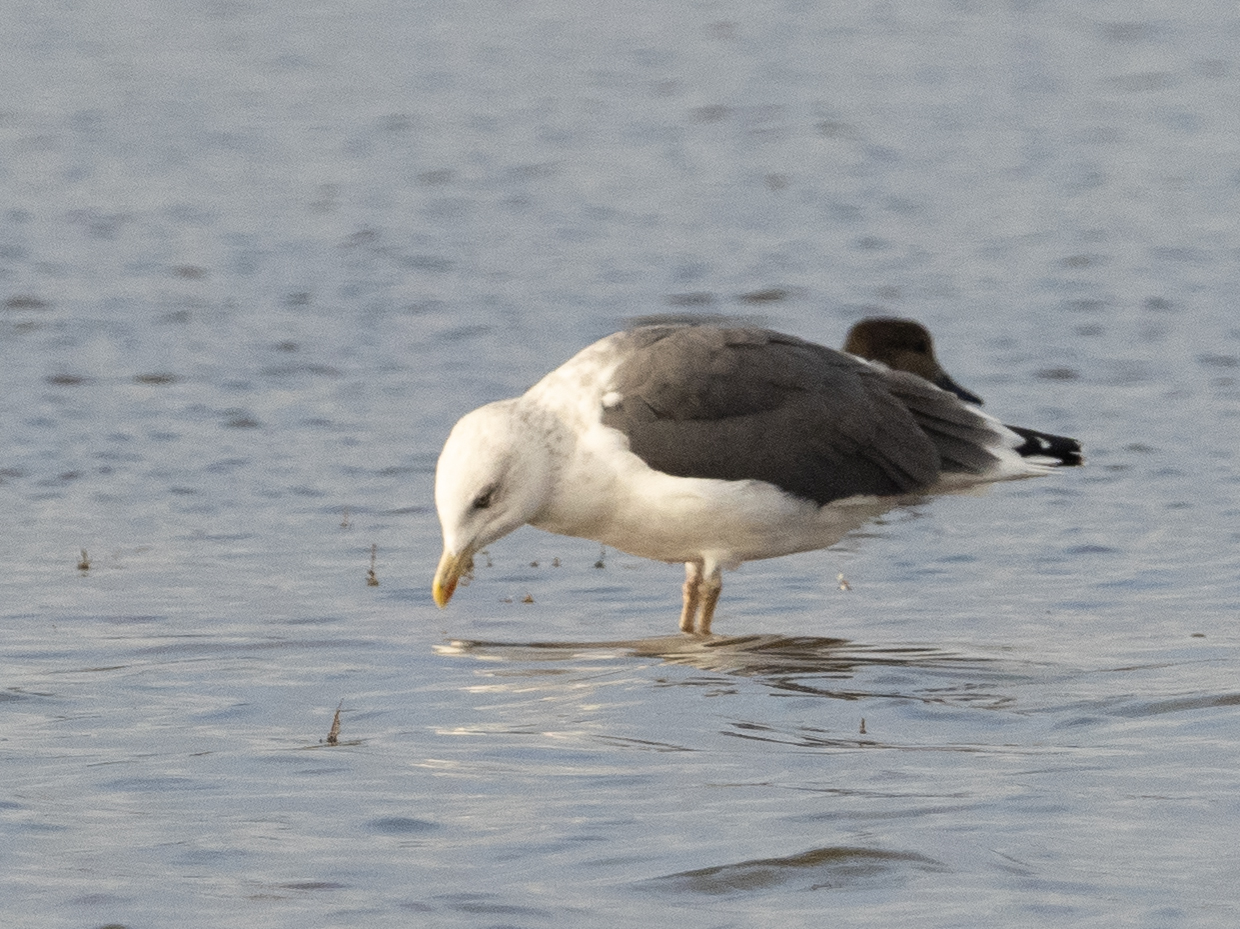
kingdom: Animalia
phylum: Chordata
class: Aves
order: Charadriiformes
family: Laridae
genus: Larus
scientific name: Larus fuscus
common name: Lesser black-backed gull
